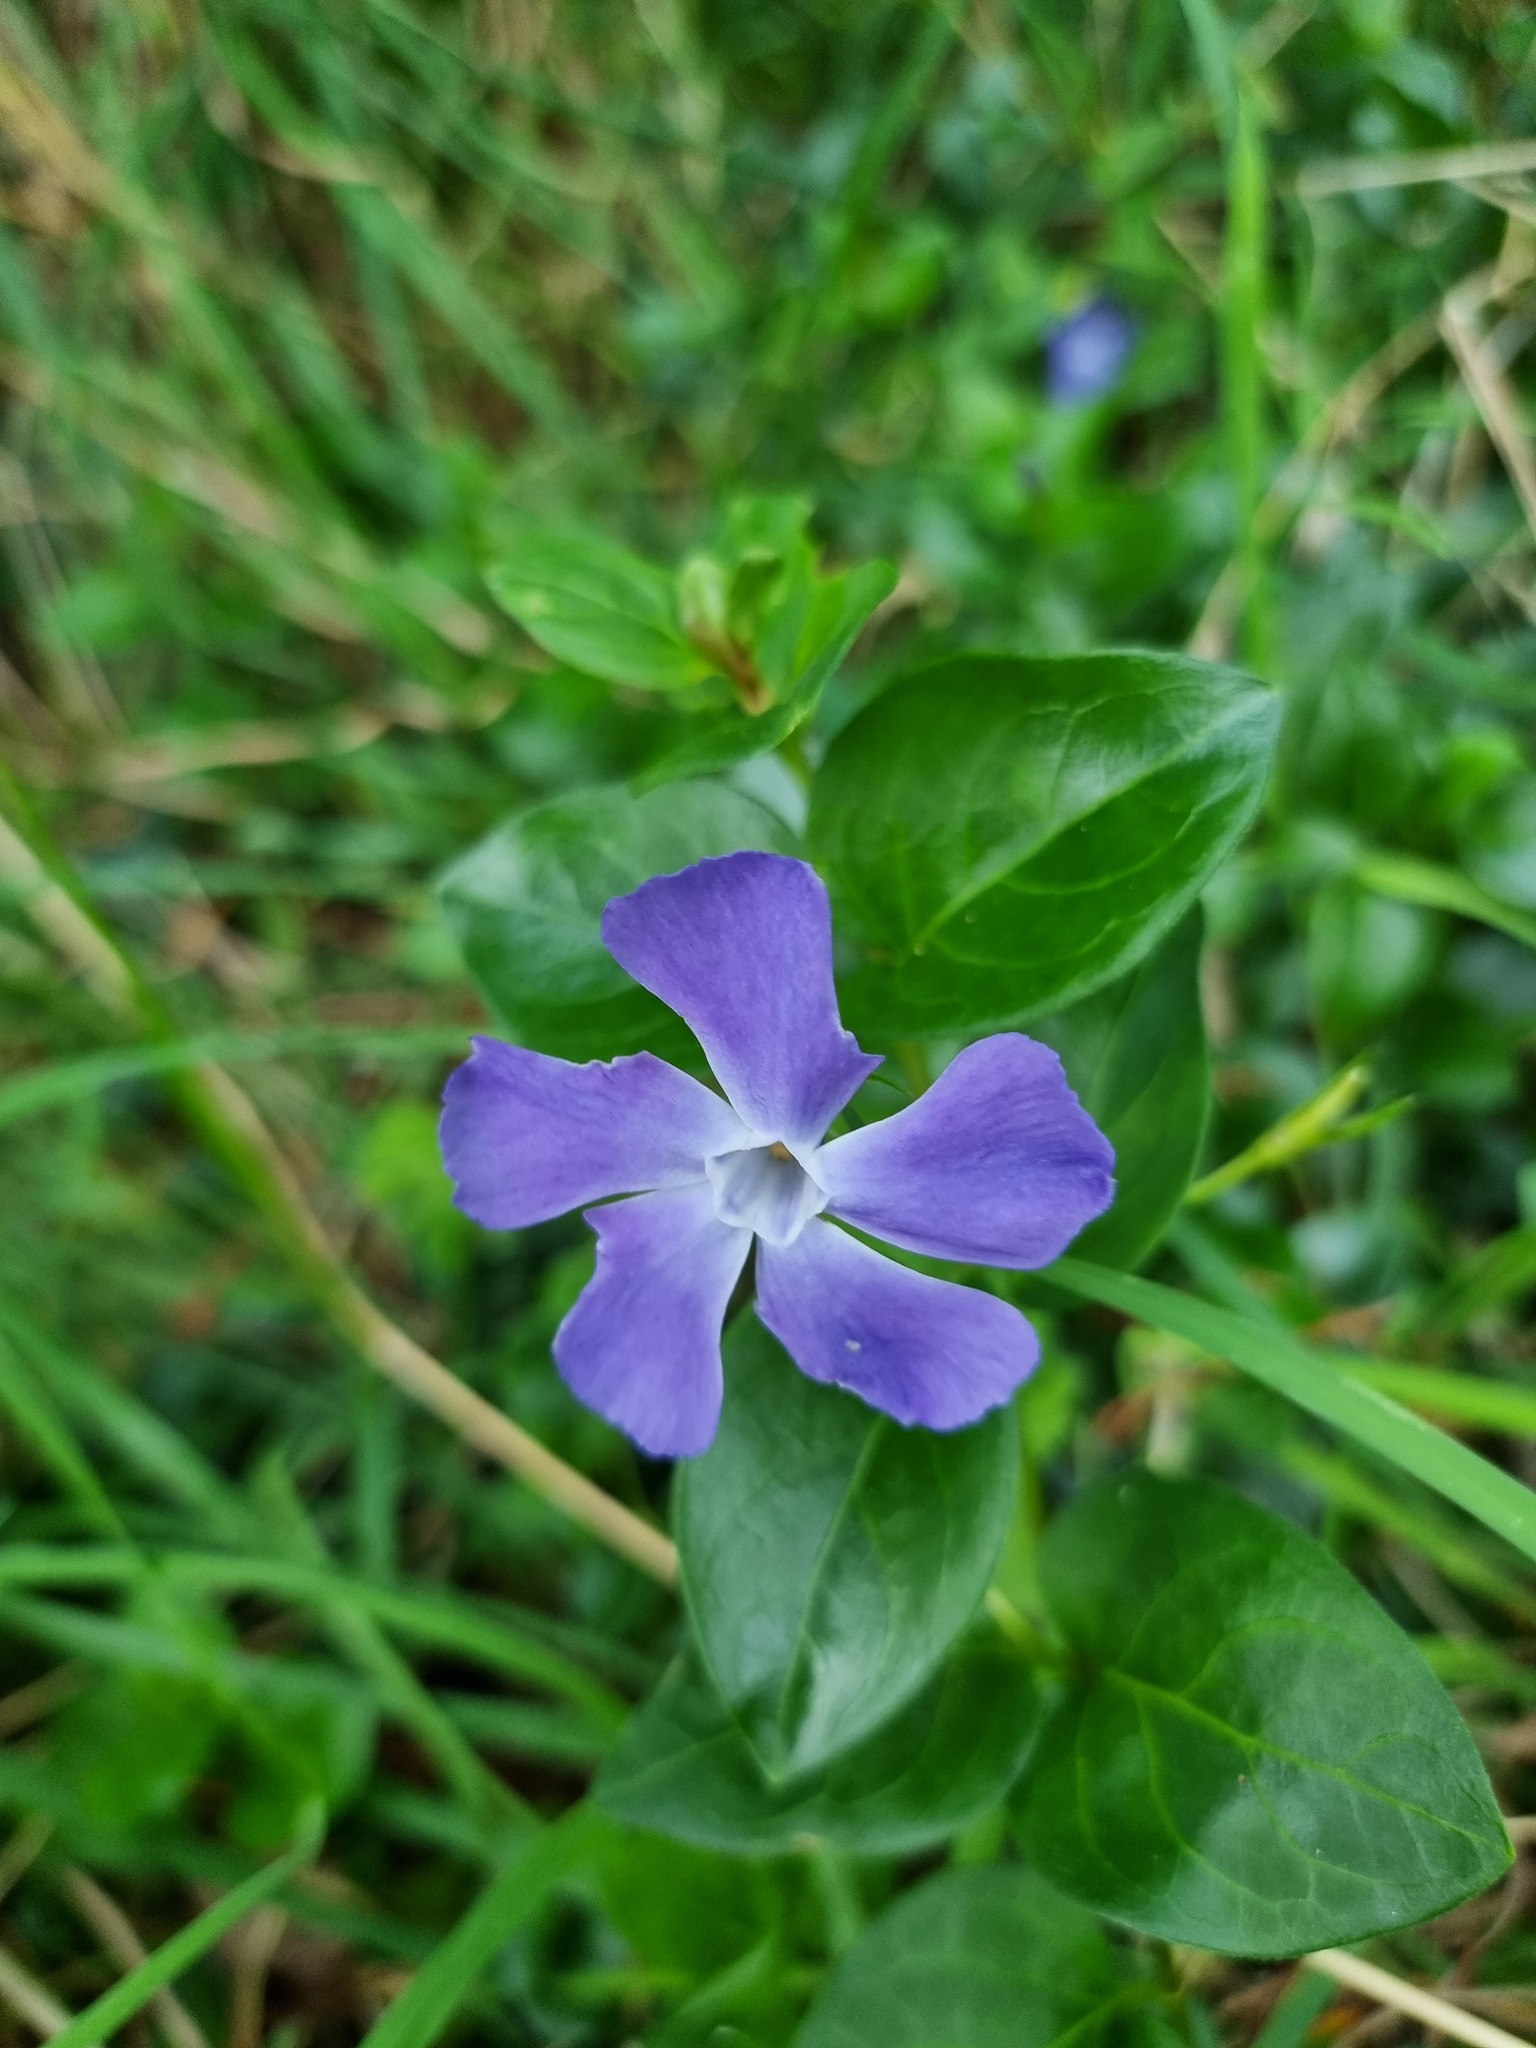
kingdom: Plantae
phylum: Tracheophyta
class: Magnoliopsida
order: Gentianales
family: Apocynaceae
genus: Vinca
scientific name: Vinca major
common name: Greater periwinkle
